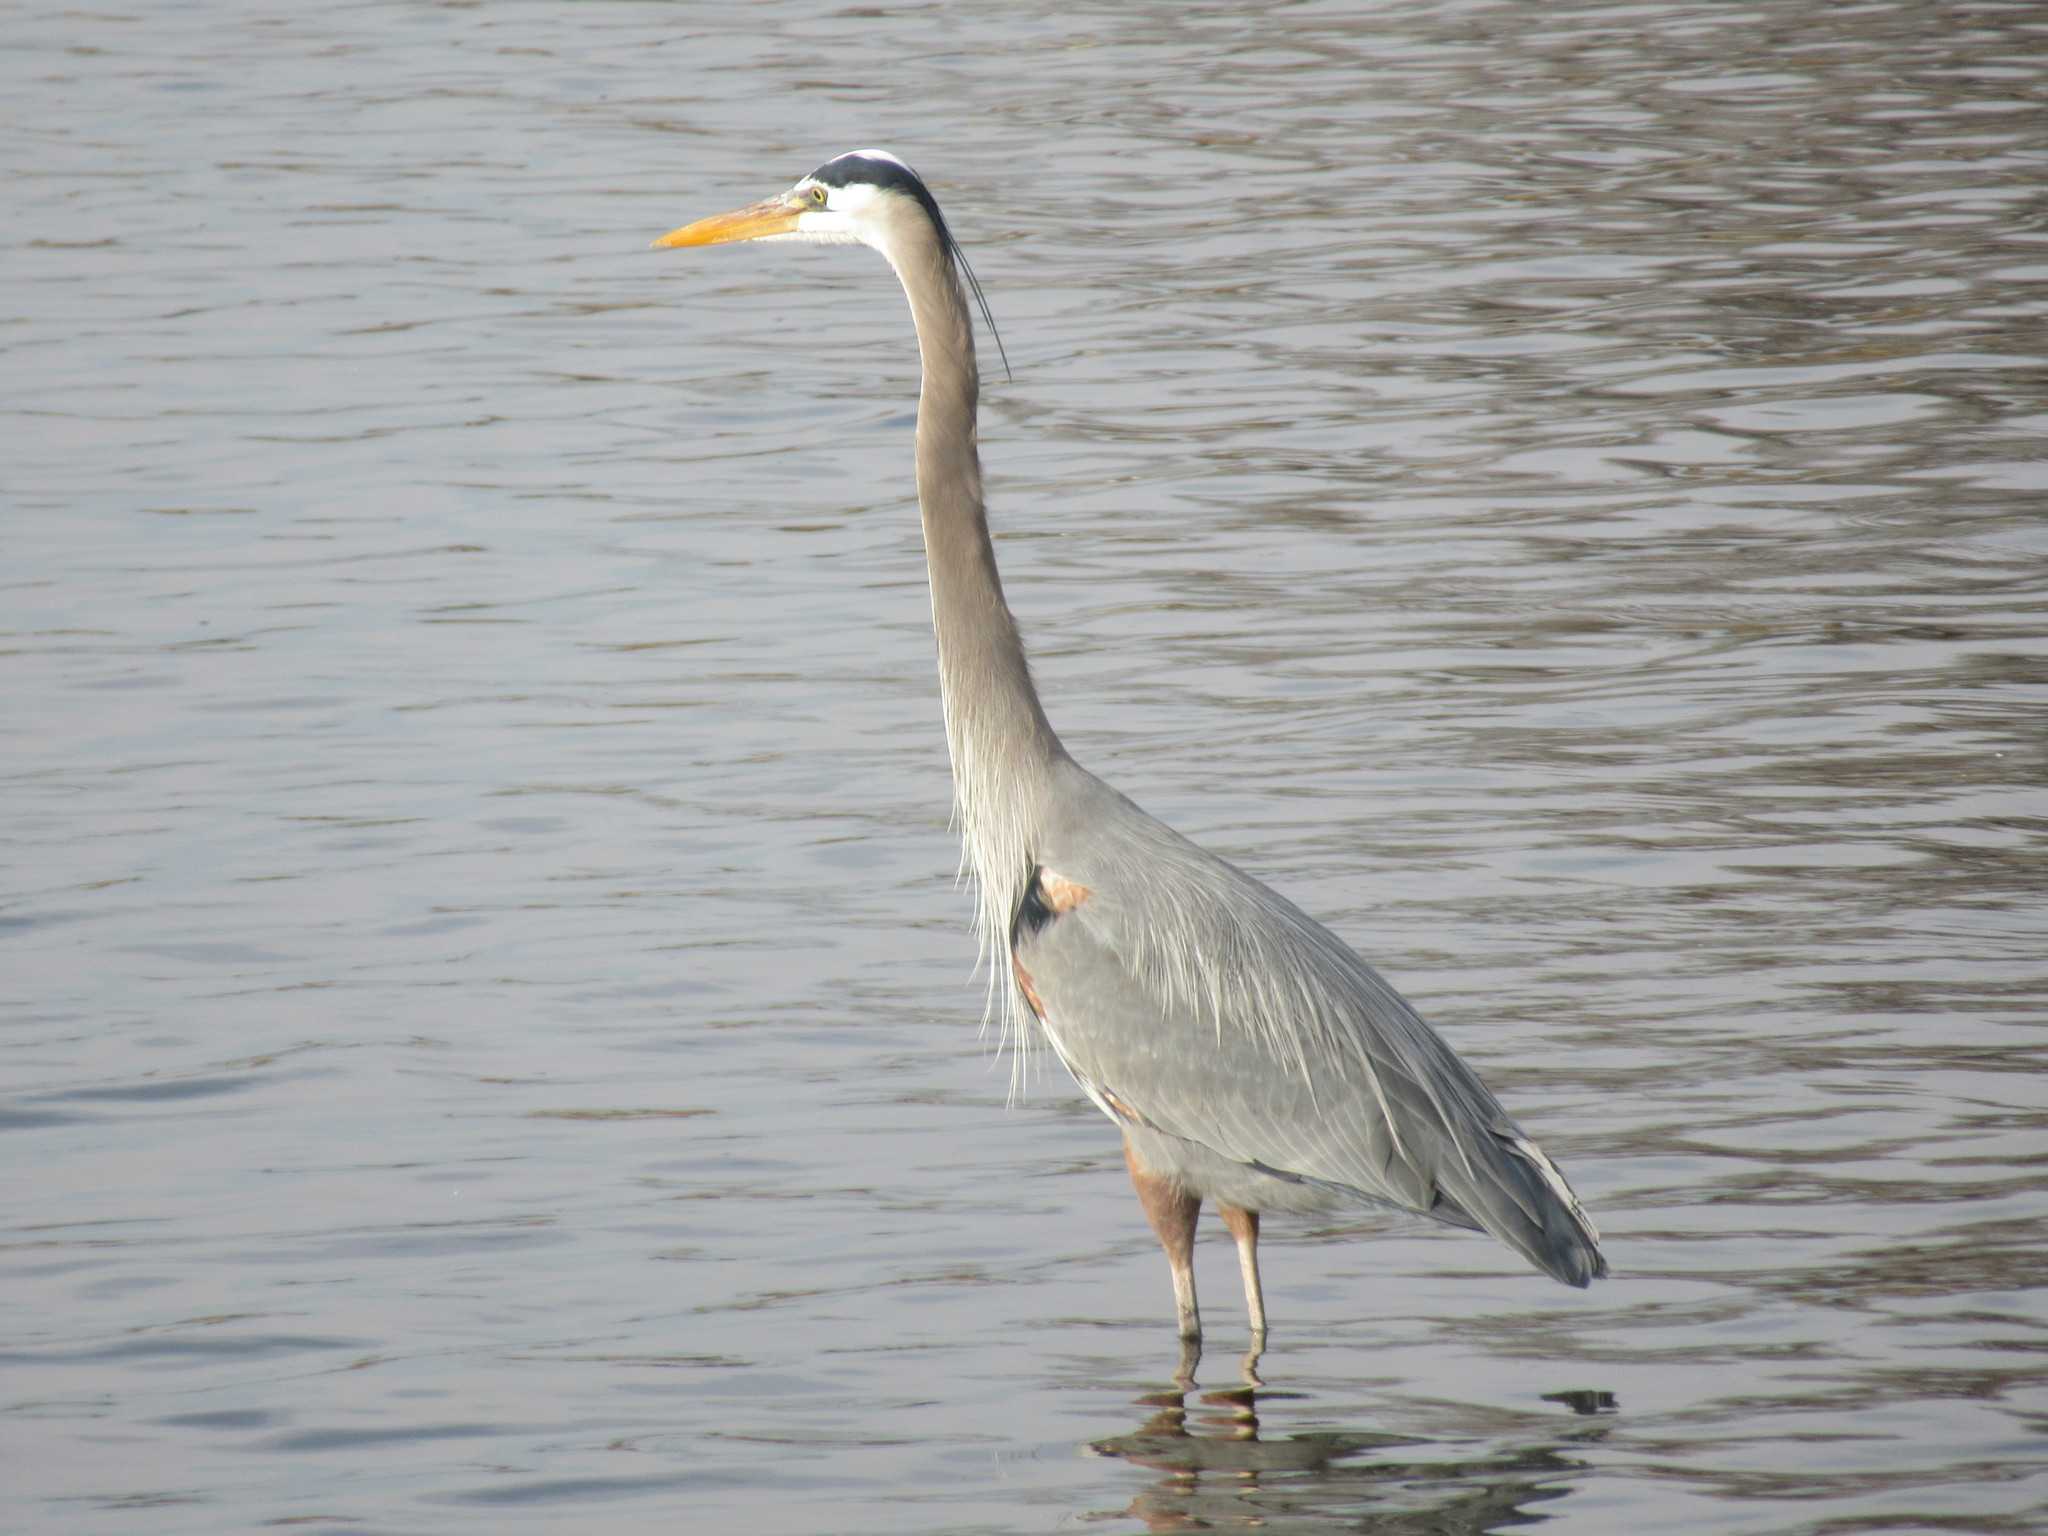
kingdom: Animalia
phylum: Chordata
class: Aves
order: Pelecaniformes
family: Ardeidae
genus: Ardea
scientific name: Ardea herodias
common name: Great blue heron
